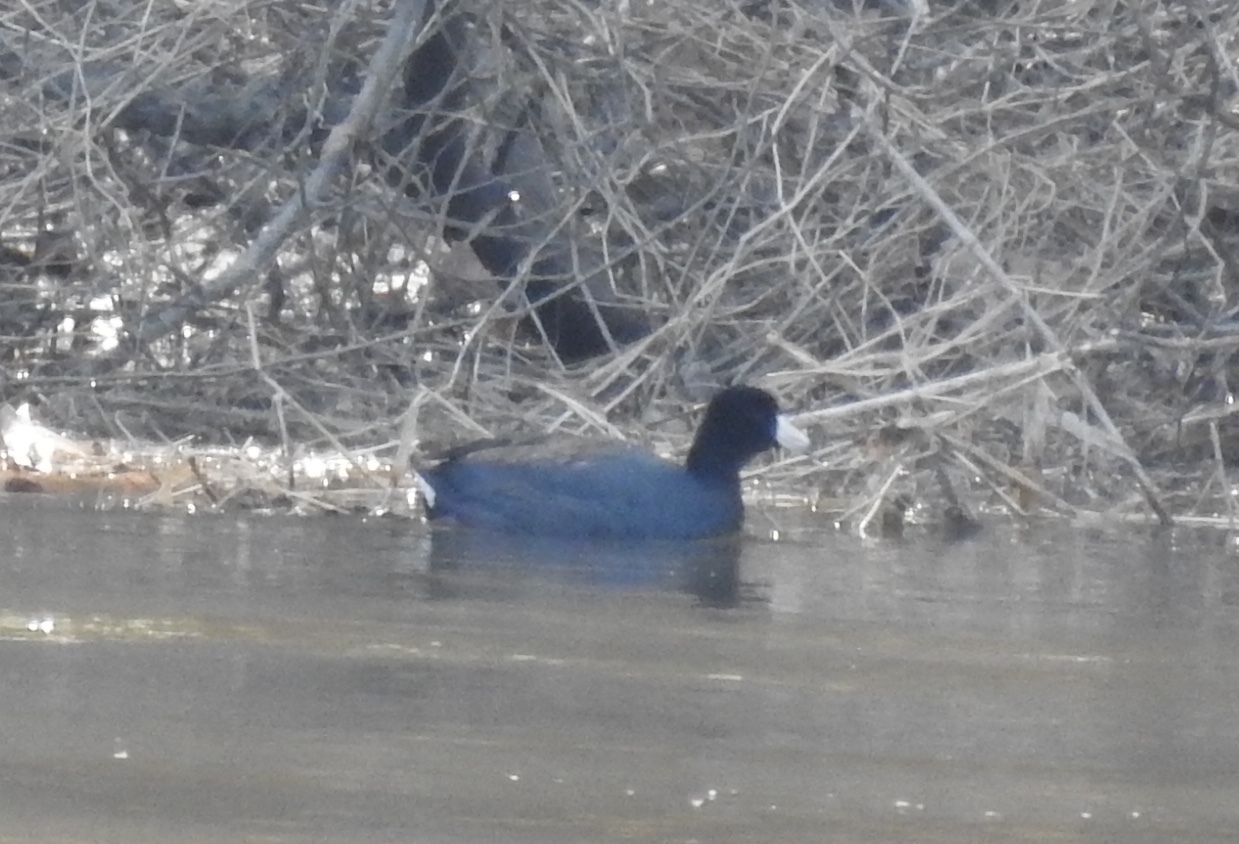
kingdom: Animalia
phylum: Chordata
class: Aves
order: Gruiformes
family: Rallidae
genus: Fulica
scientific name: Fulica americana
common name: American coot
